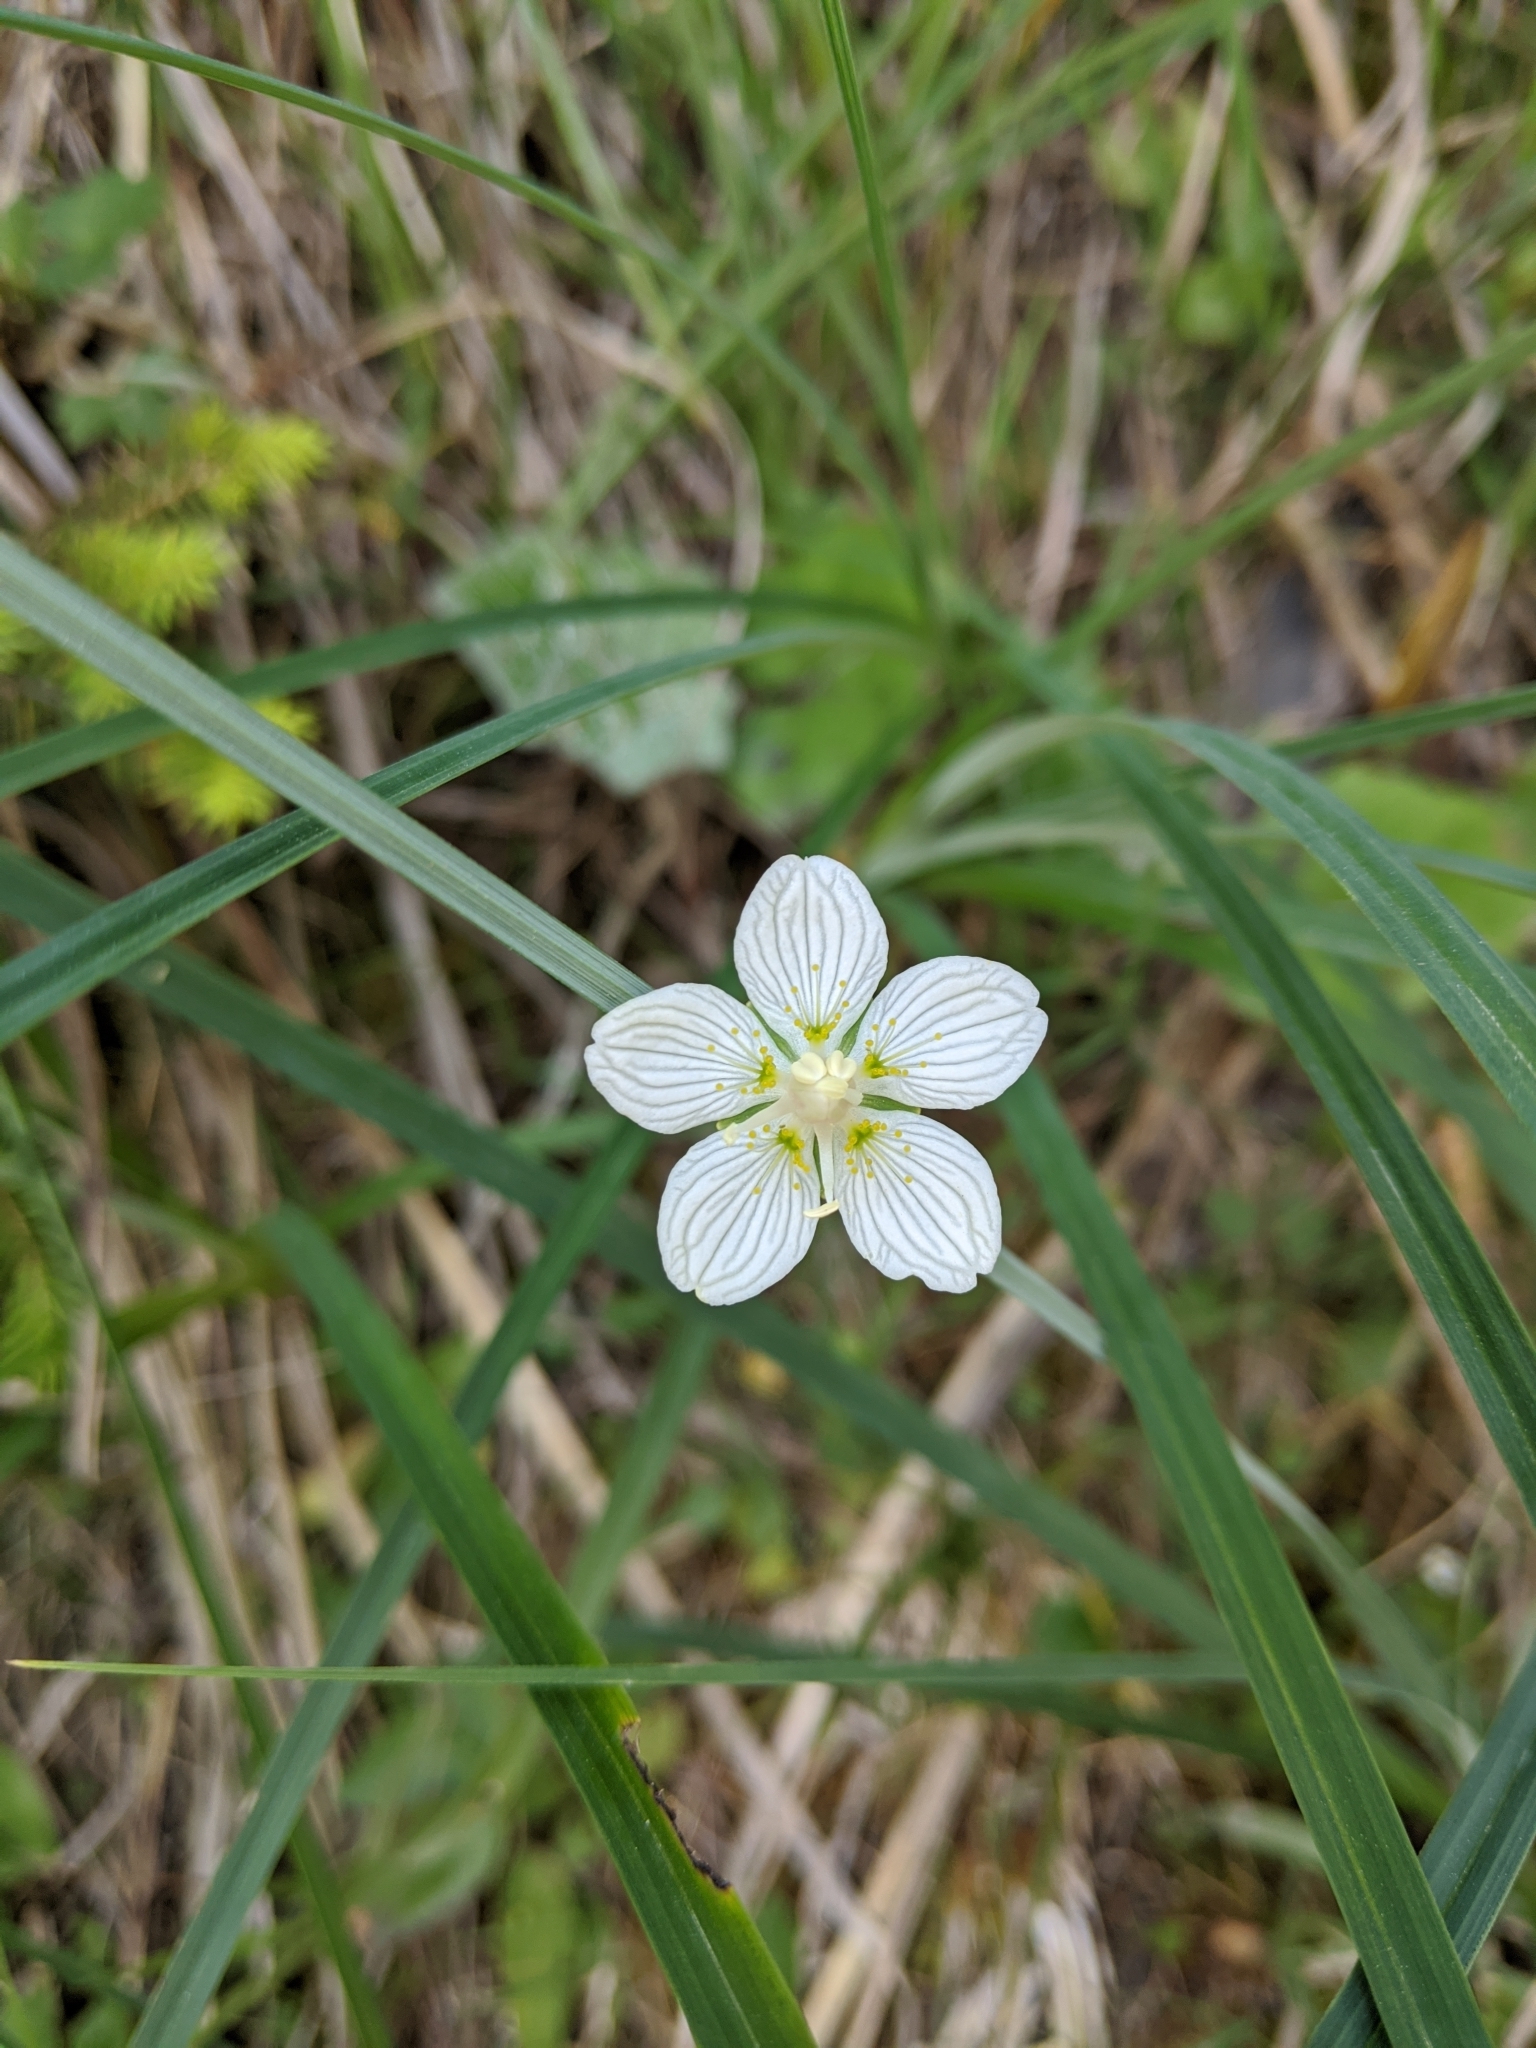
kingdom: Plantae
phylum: Tracheophyta
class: Magnoliopsida
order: Celastrales
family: Parnassiaceae
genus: Parnassia
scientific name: Parnassia palustris
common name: Grass-of-parnassus
